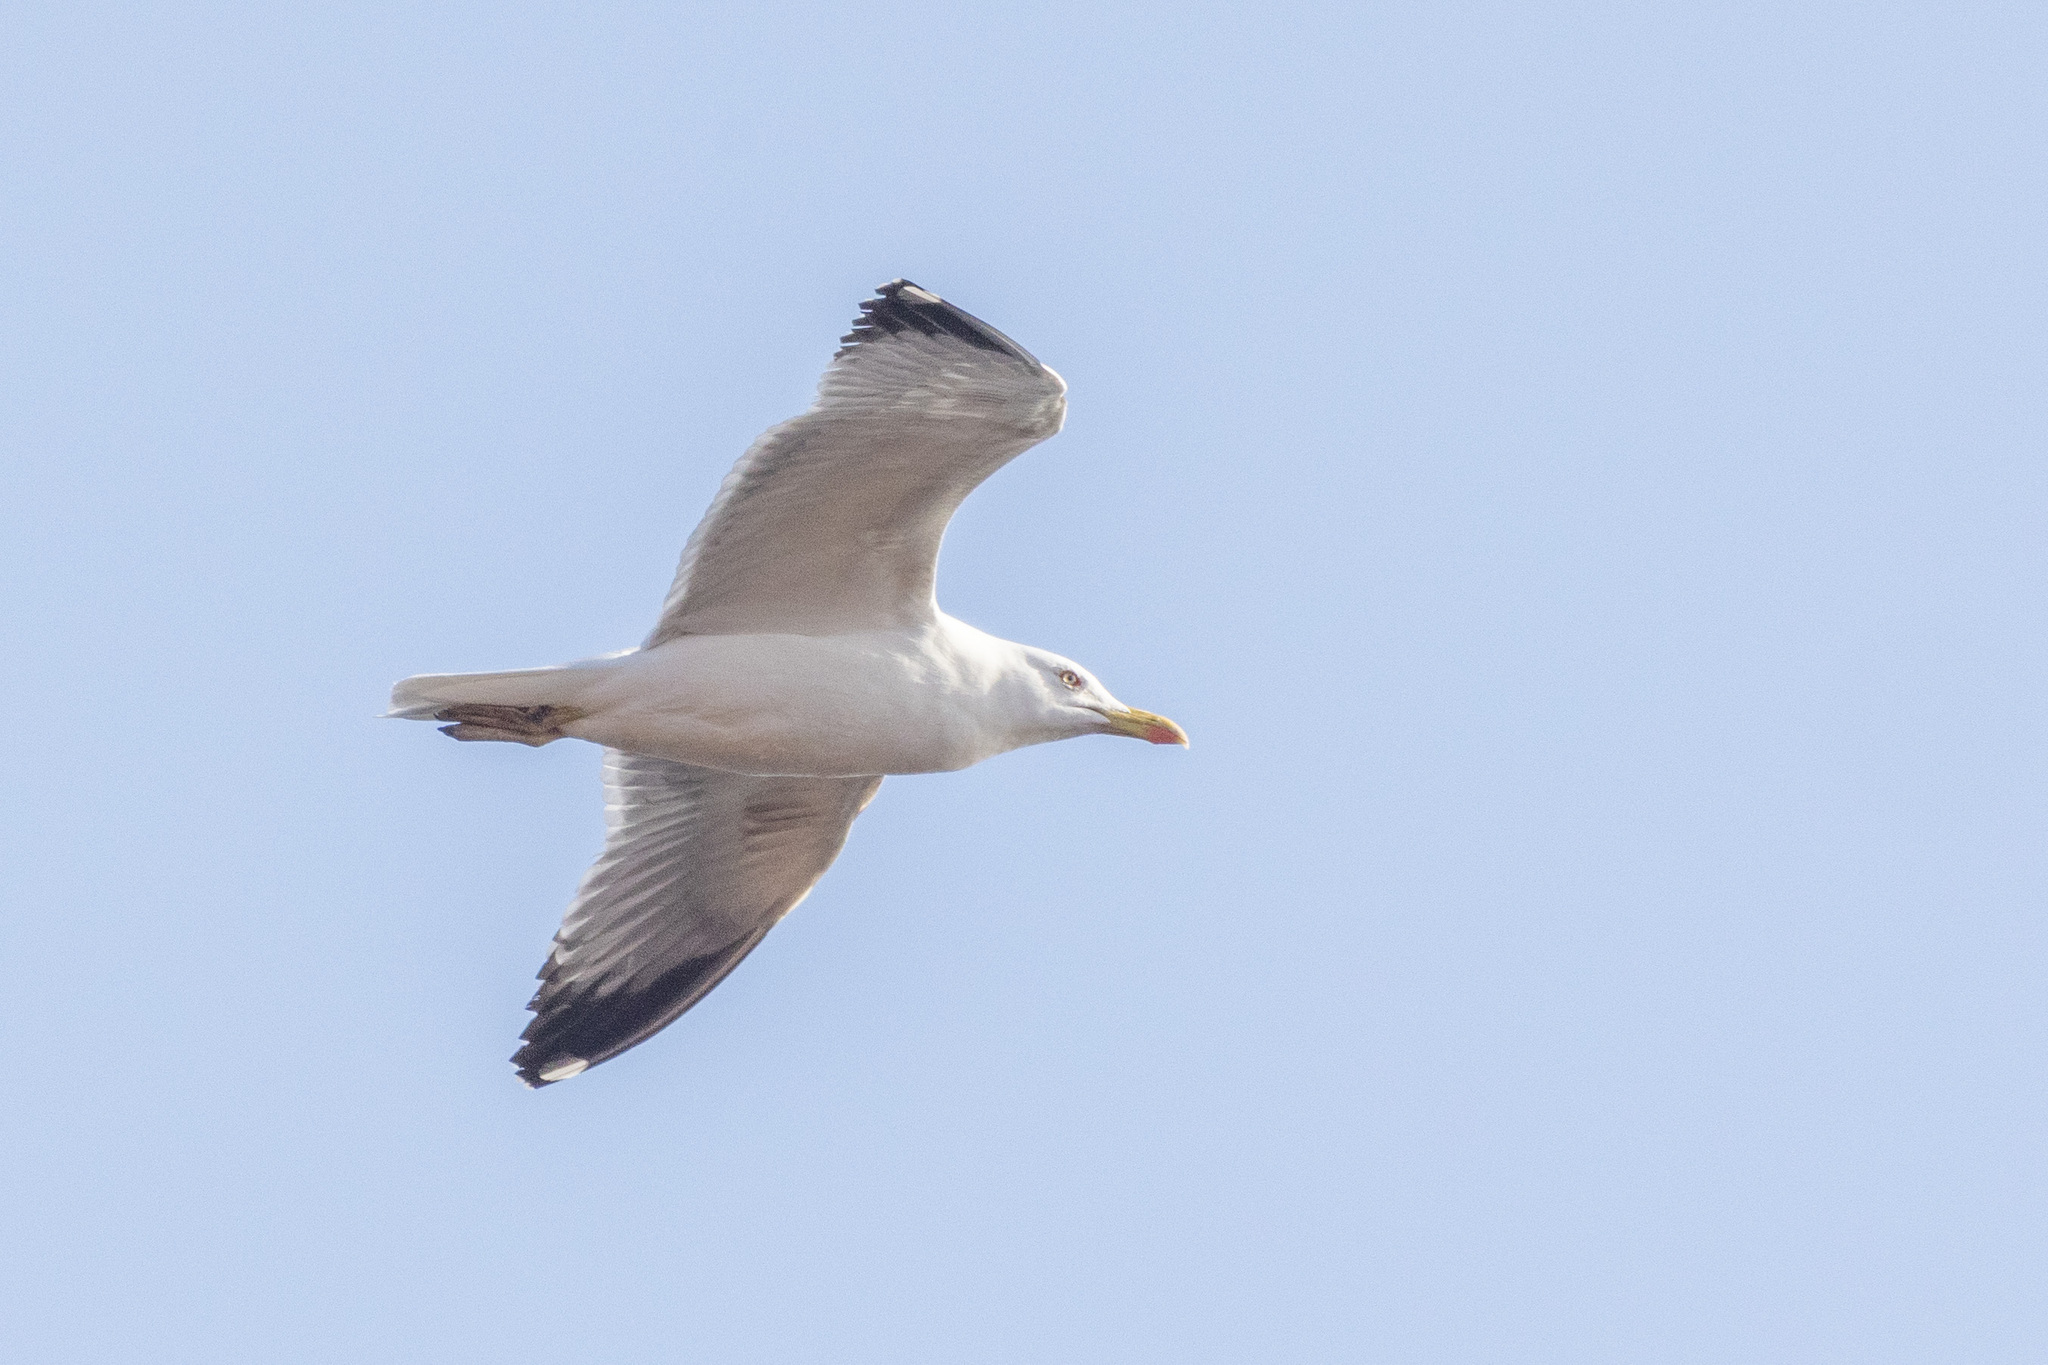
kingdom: Animalia
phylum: Chordata
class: Aves
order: Charadriiformes
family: Laridae
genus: Larus
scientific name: Larus michahellis
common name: Yellow-legged gull
